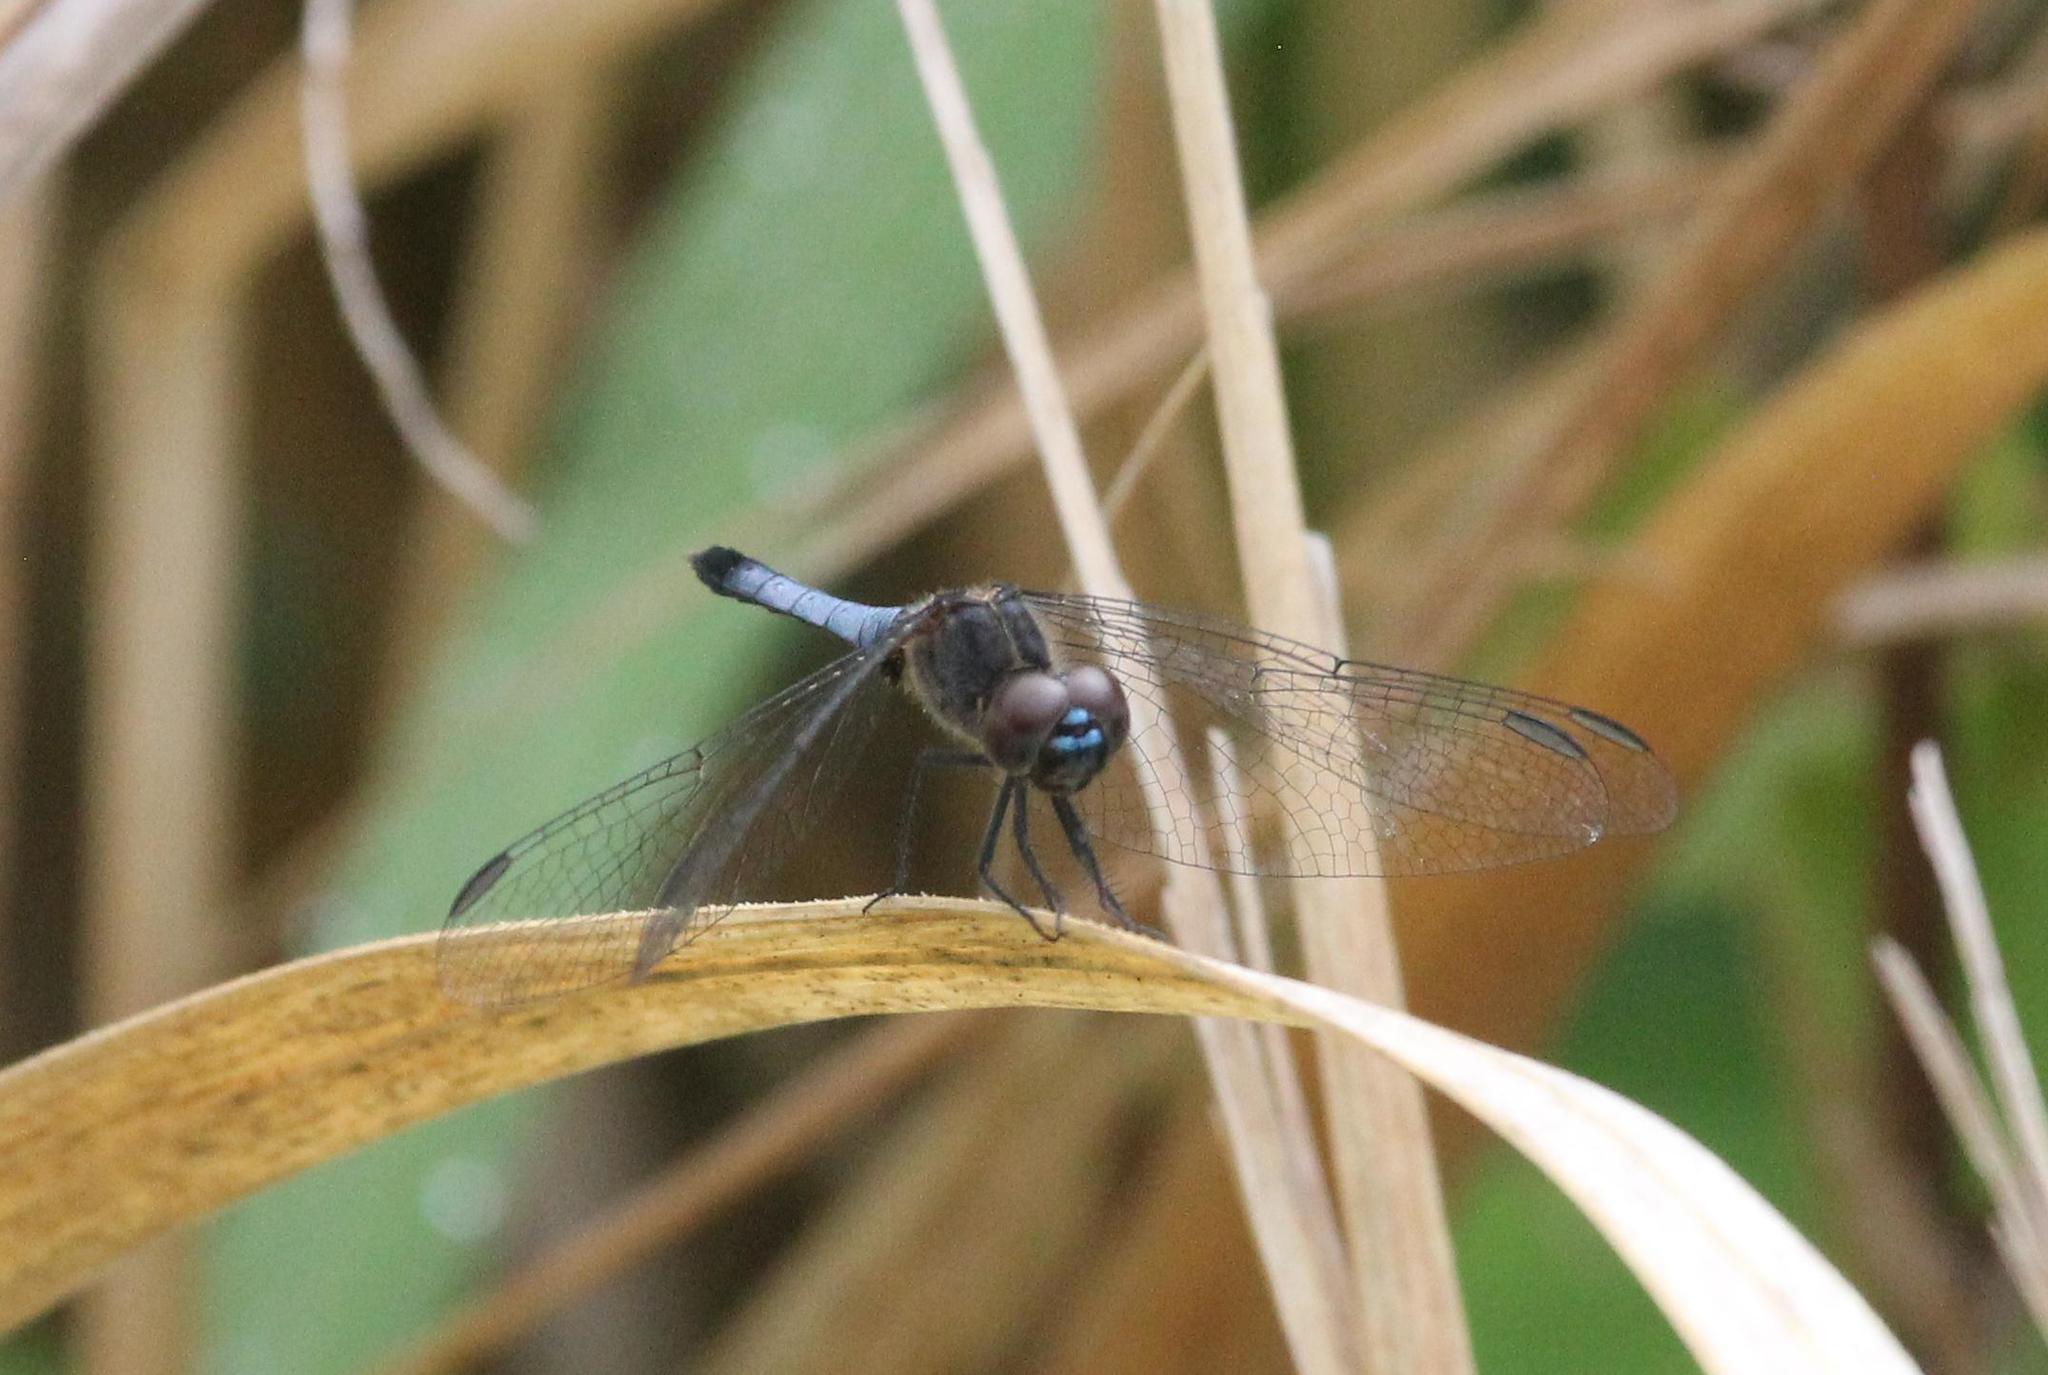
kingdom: Animalia
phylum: Arthropoda
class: Insecta
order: Odonata
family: Libellulidae
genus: Erythrodiplax
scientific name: Erythrodiplax minuscula
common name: Little blue dragonlet
